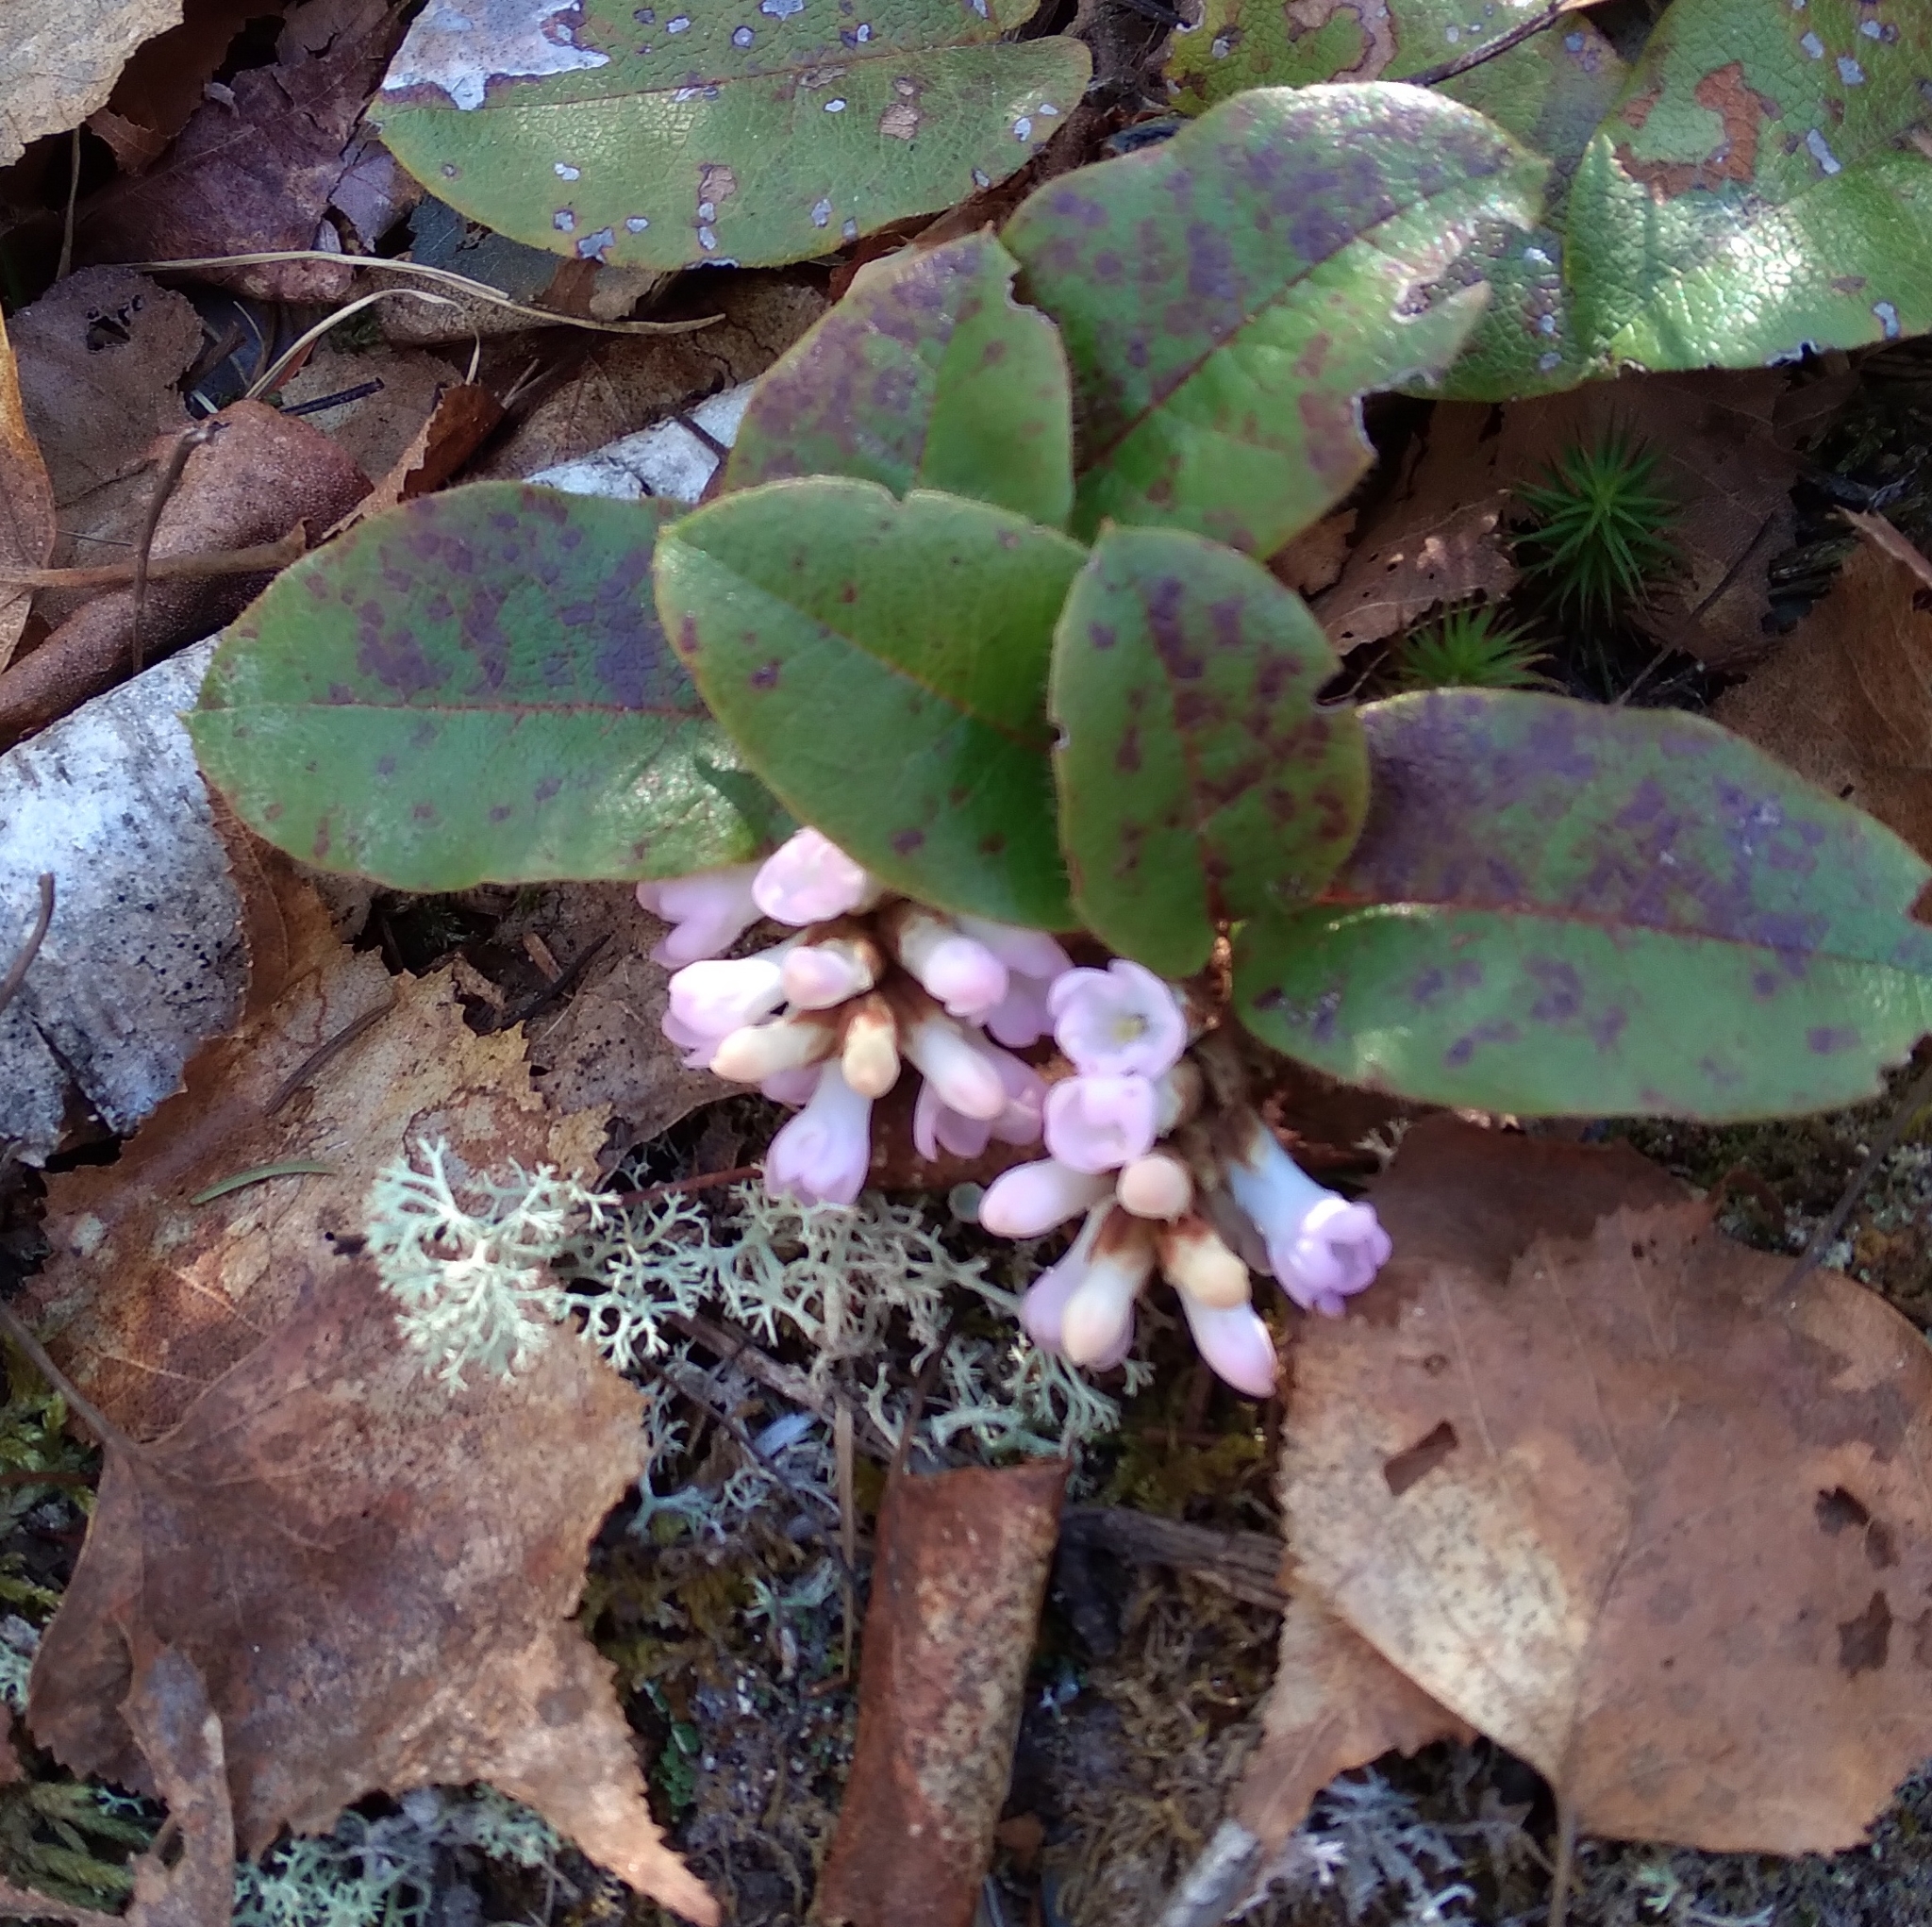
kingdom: Plantae
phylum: Tracheophyta
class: Magnoliopsida
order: Ericales
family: Ericaceae
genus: Epigaea
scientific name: Epigaea repens
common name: Gravelroot
